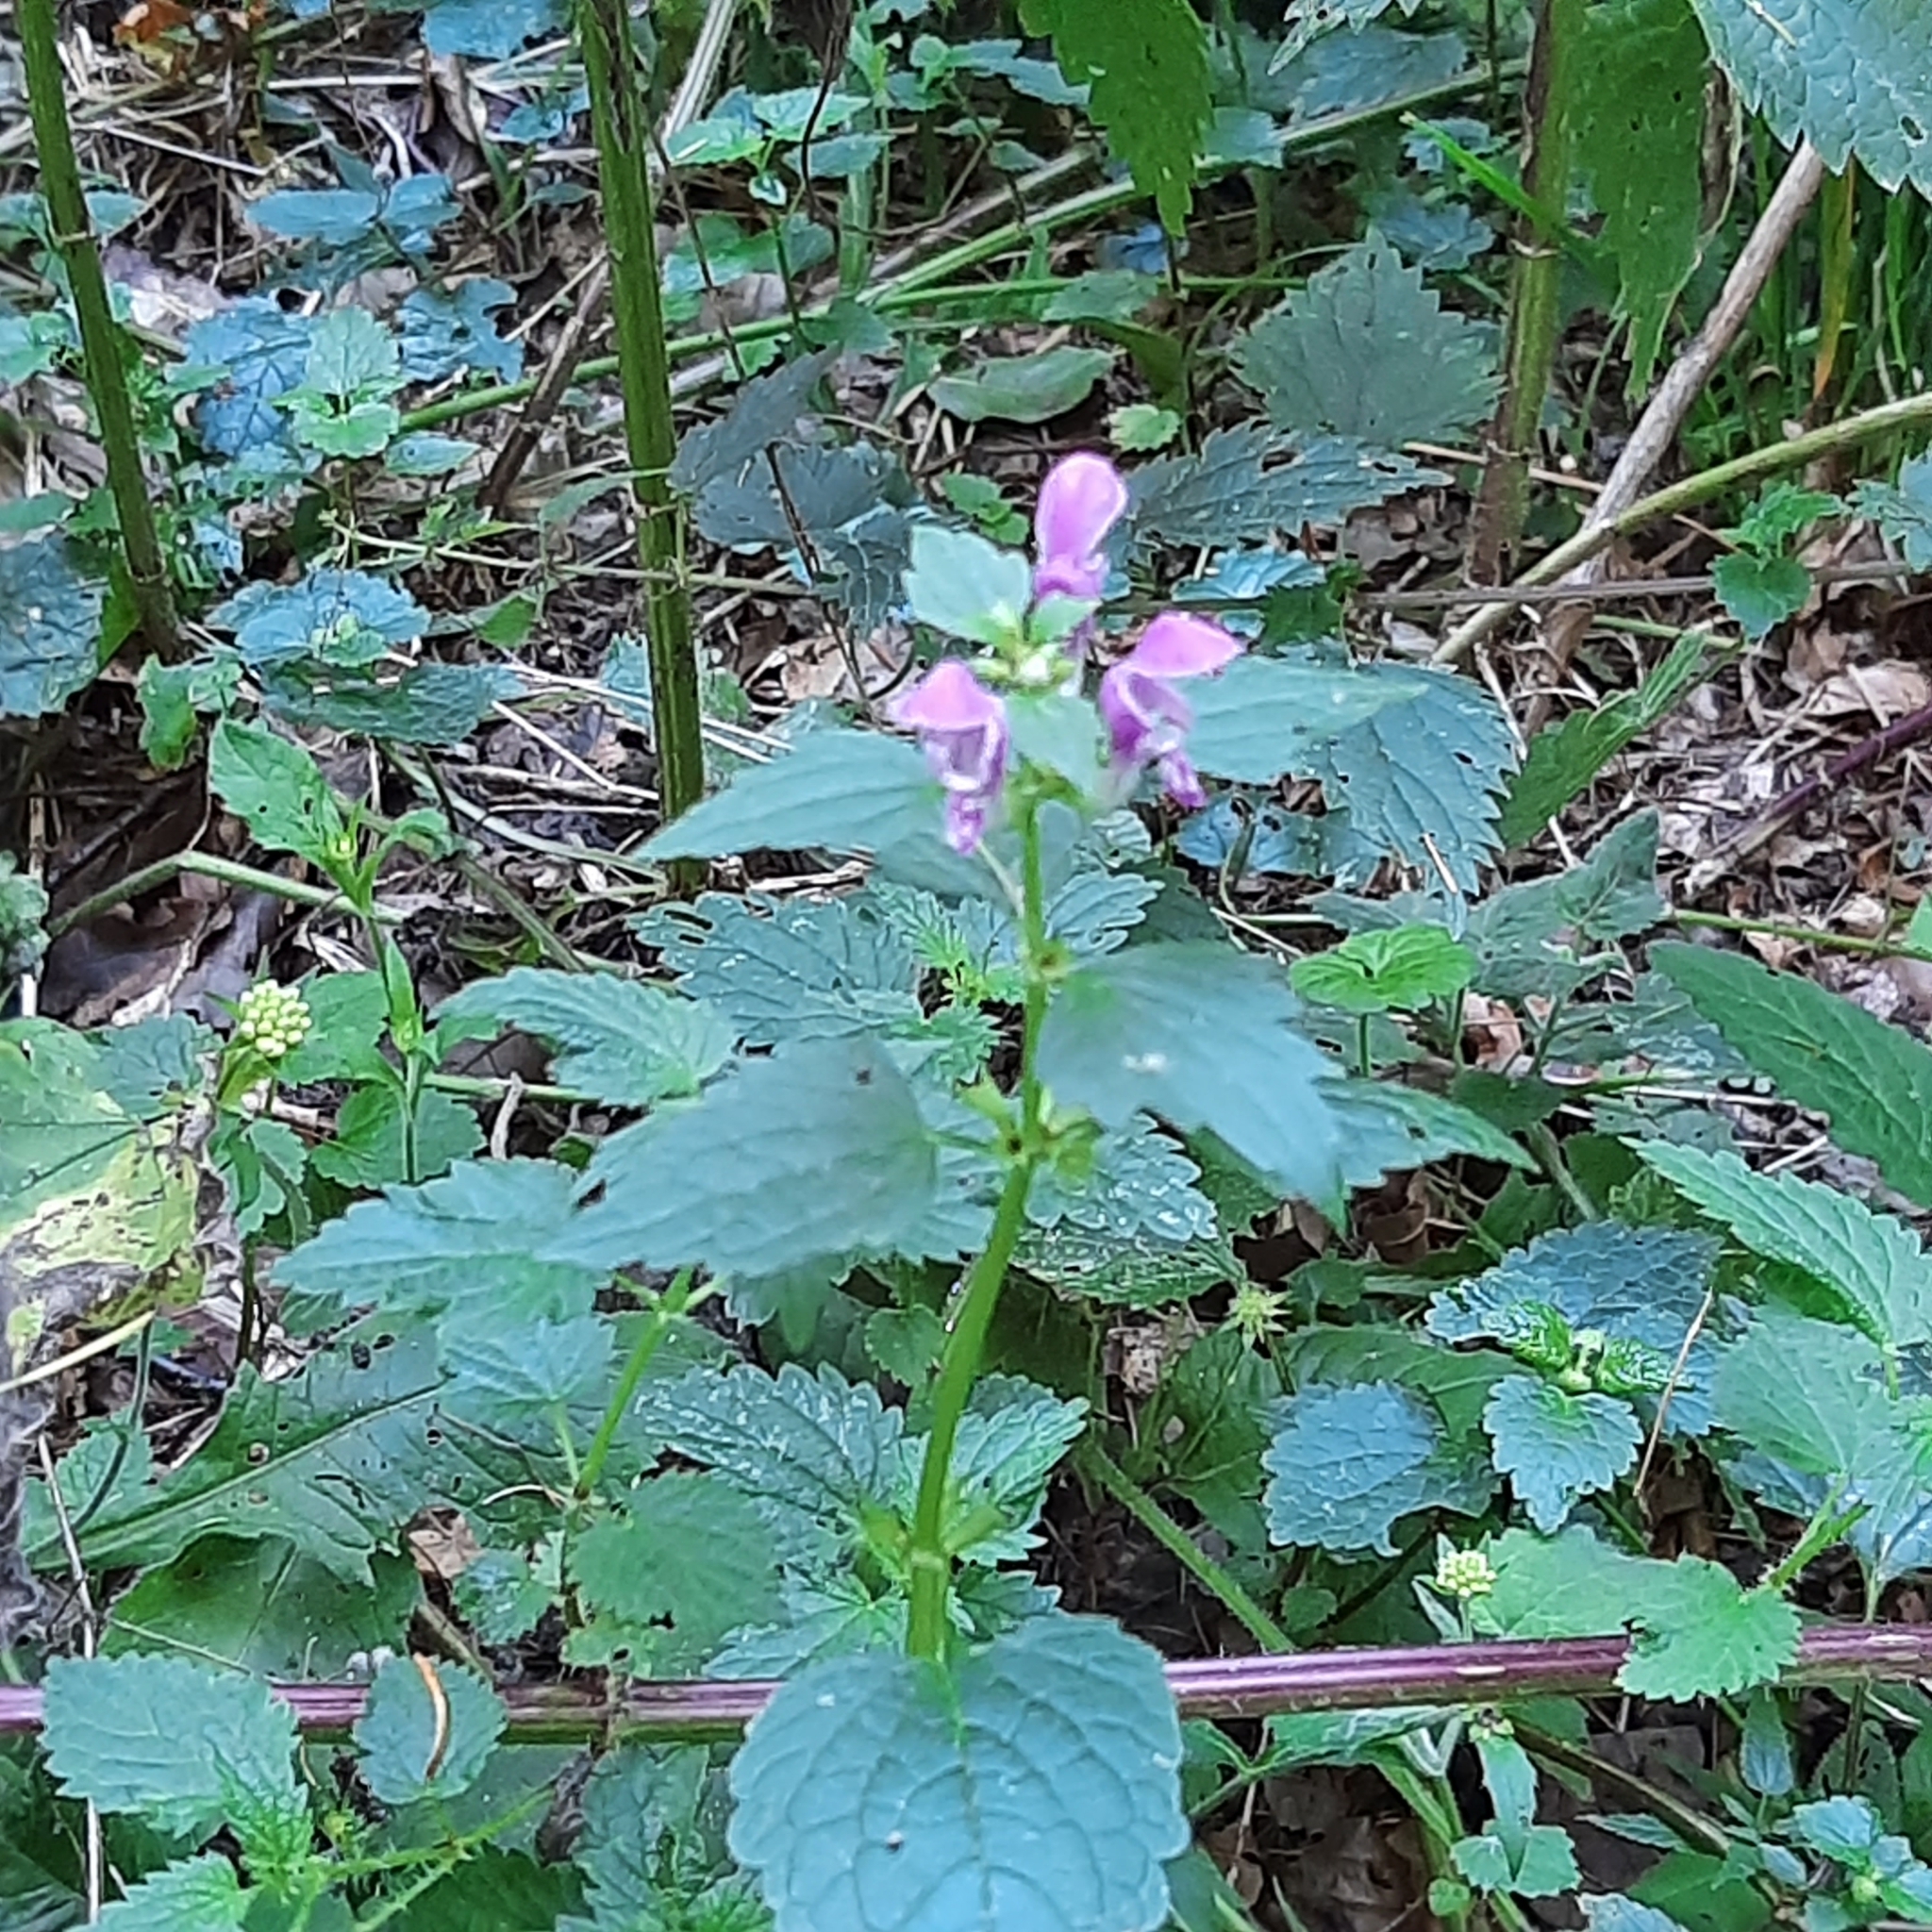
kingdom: Plantae
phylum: Tracheophyta
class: Magnoliopsida
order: Lamiales
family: Lamiaceae
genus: Lamium
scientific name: Lamium maculatum
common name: Spotted dead-nettle
